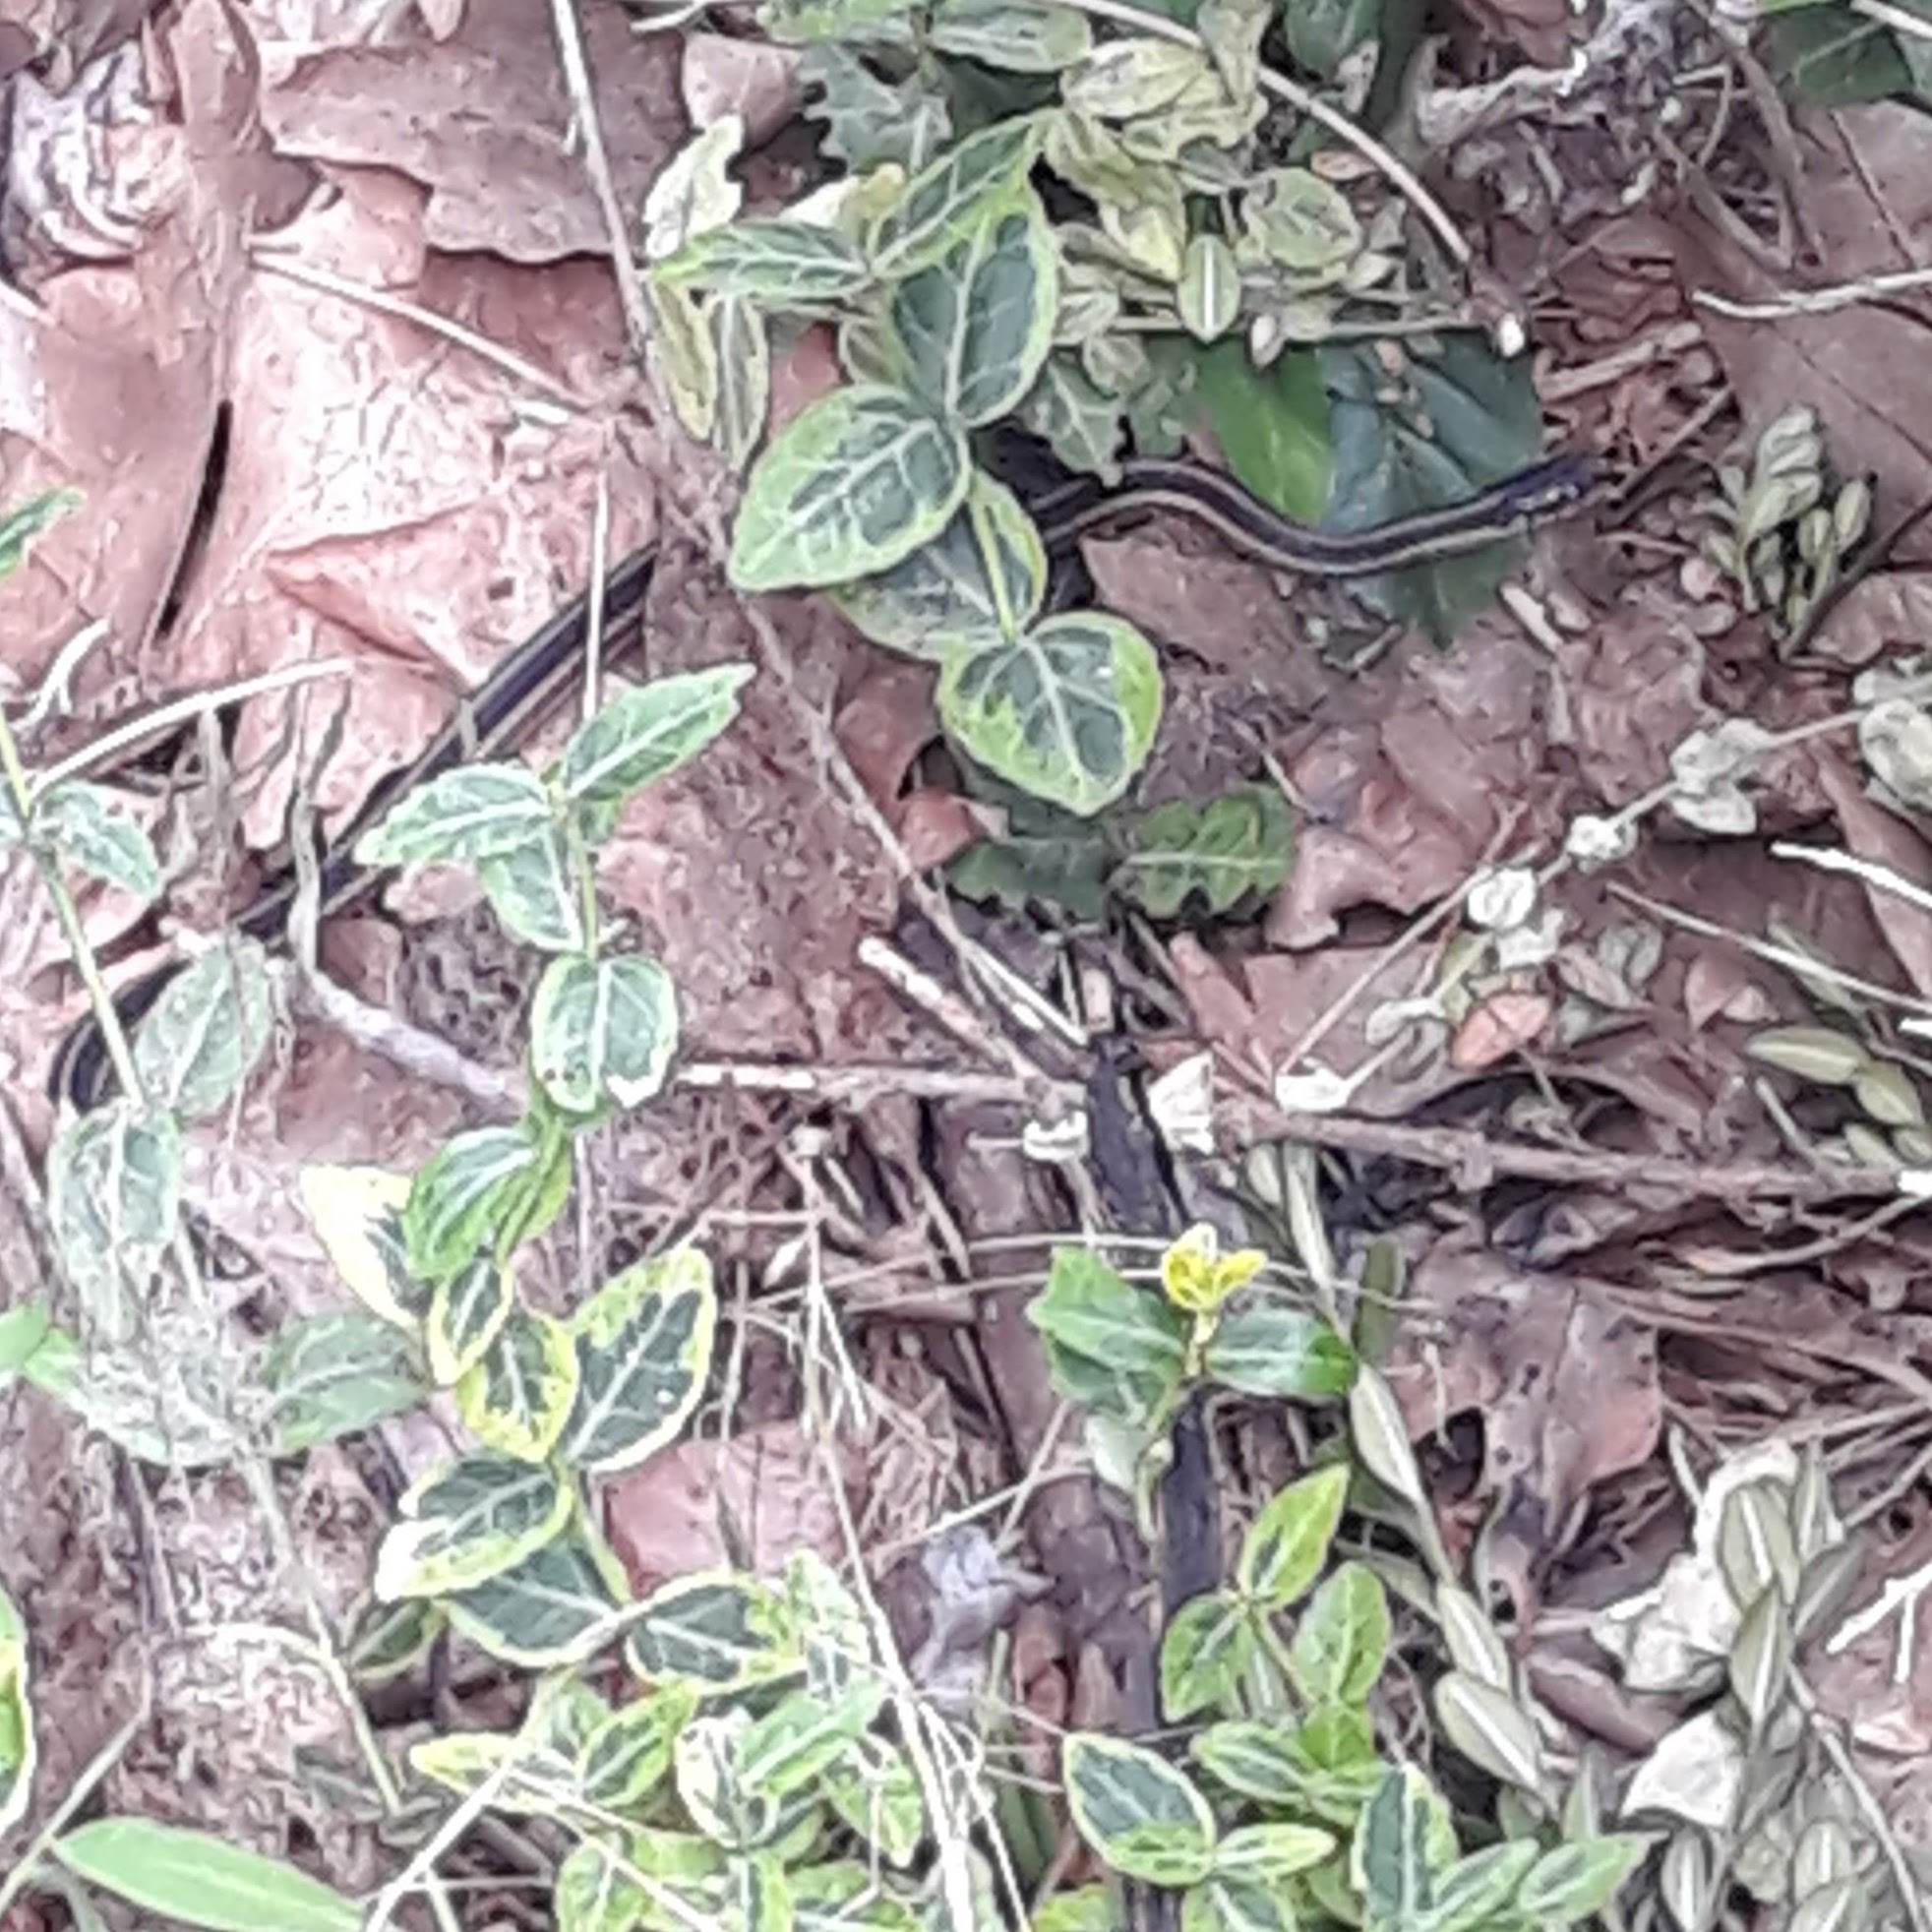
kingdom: Animalia
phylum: Chordata
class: Squamata
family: Colubridae
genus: Thamnophis
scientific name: Thamnophis sirtalis
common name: Common garter snake
